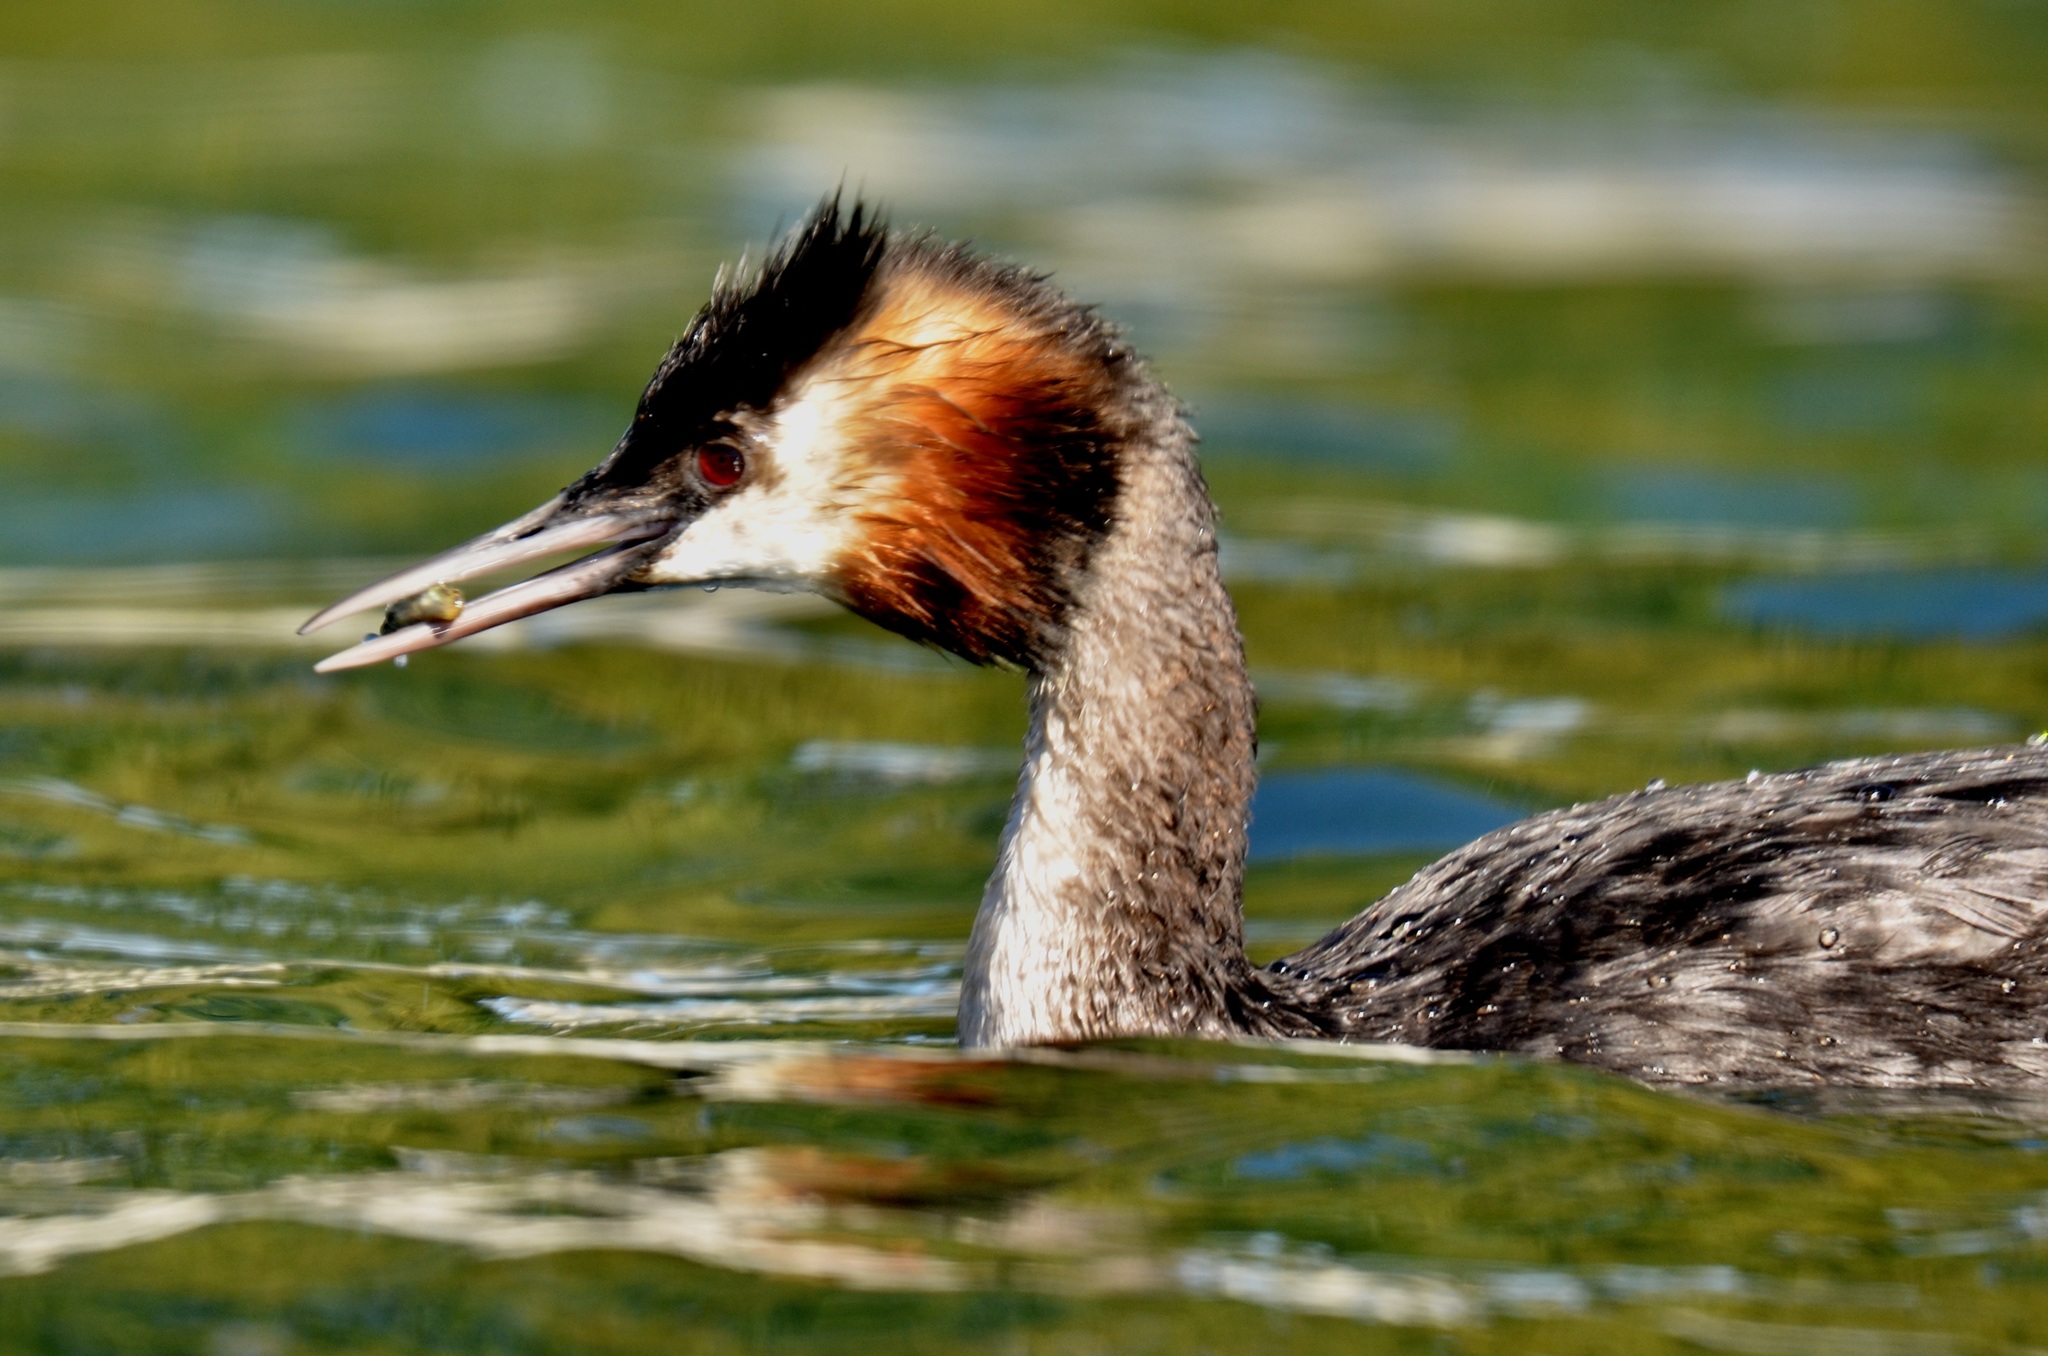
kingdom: Animalia
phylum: Chordata
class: Aves
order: Podicipediformes
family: Podicipedidae
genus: Podiceps
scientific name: Podiceps cristatus
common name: Great crested grebe
